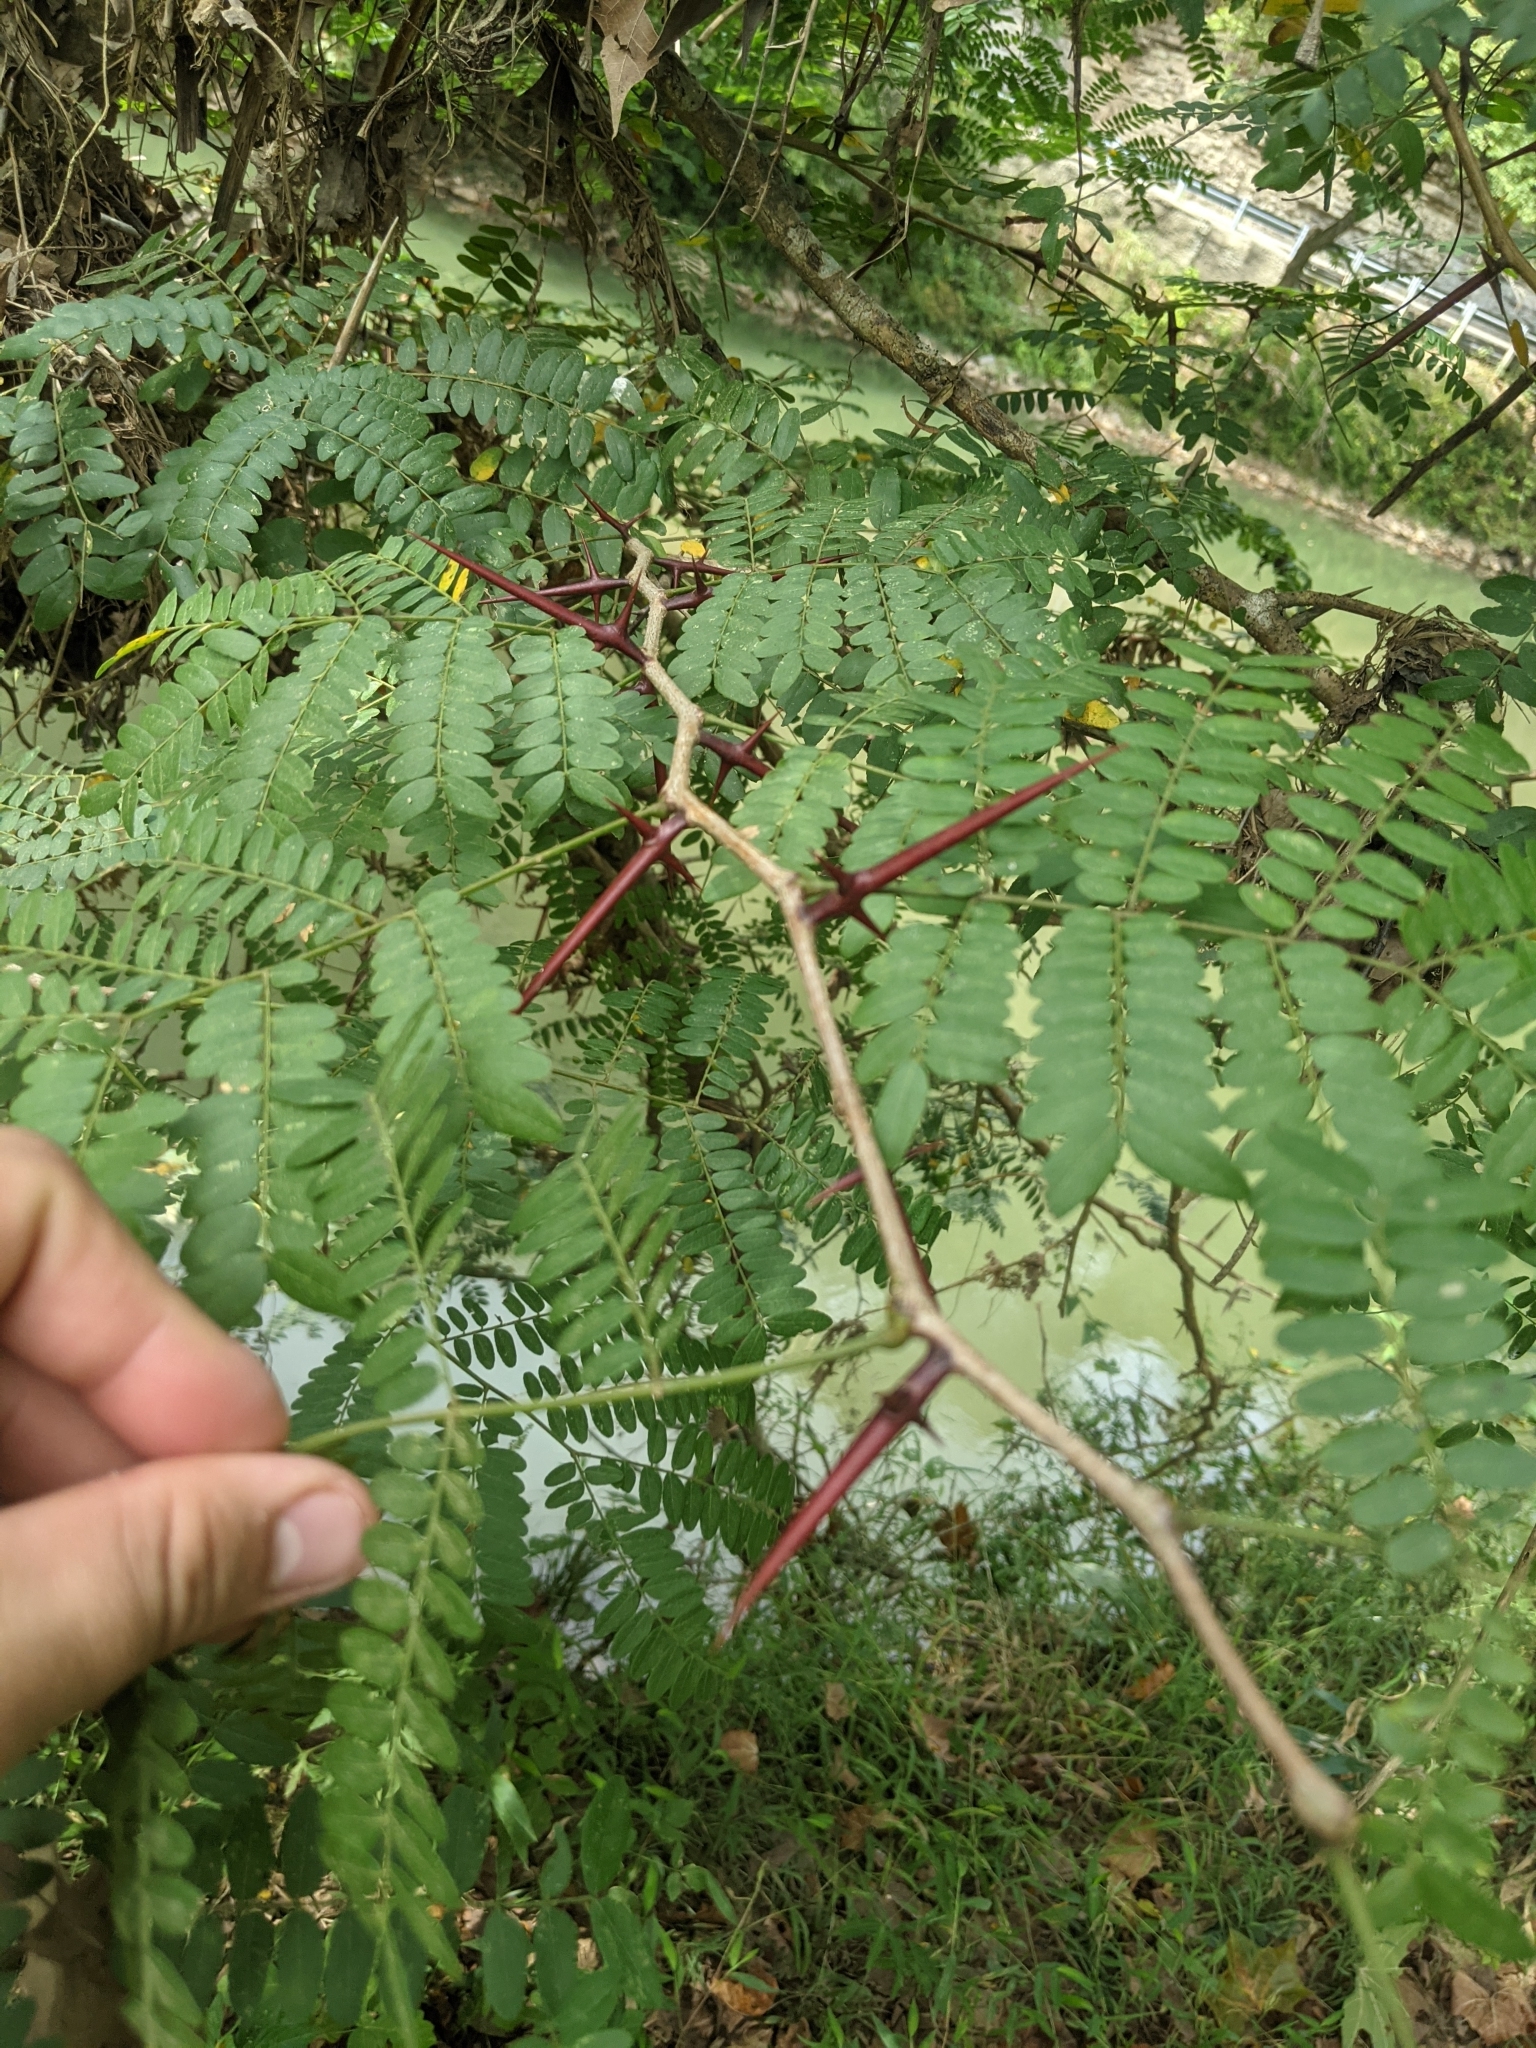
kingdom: Plantae
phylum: Tracheophyta
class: Magnoliopsida
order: Fabales
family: Fabaceae
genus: Gleditsia
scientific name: Gleditsia triacanthos
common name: Common honeylocust
